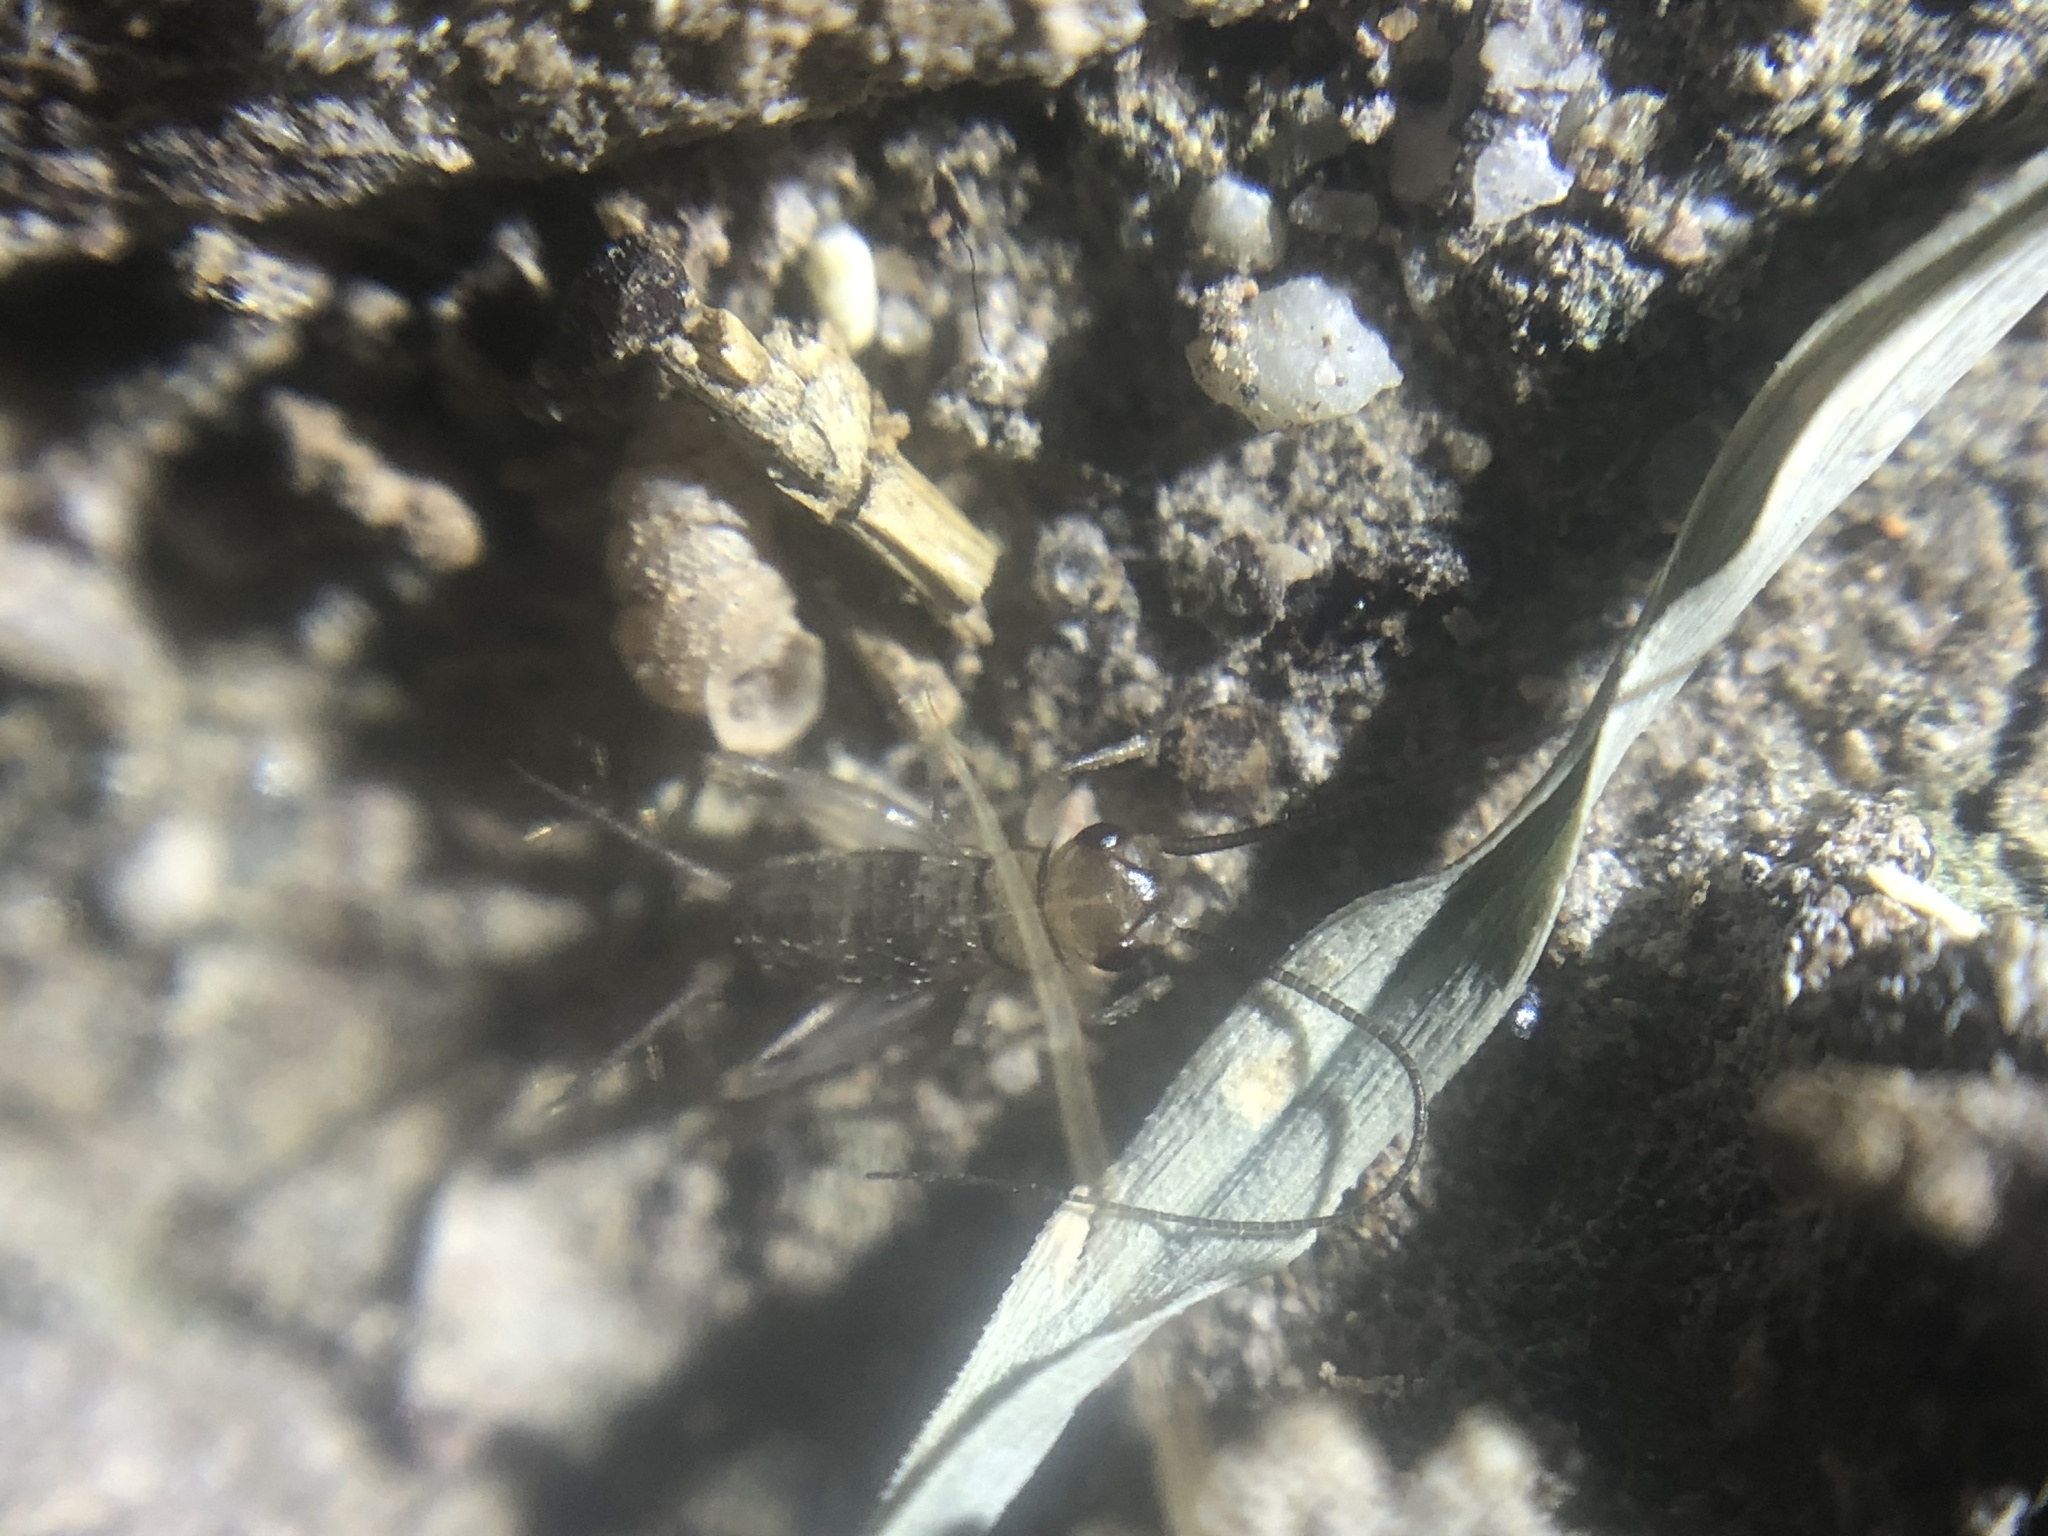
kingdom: Animalia
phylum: Arthropoda
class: Insecta
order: Orthoptera
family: Gryllidae
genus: Gryllodes
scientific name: Gryllodes sigillatus
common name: Tropical house cricket
